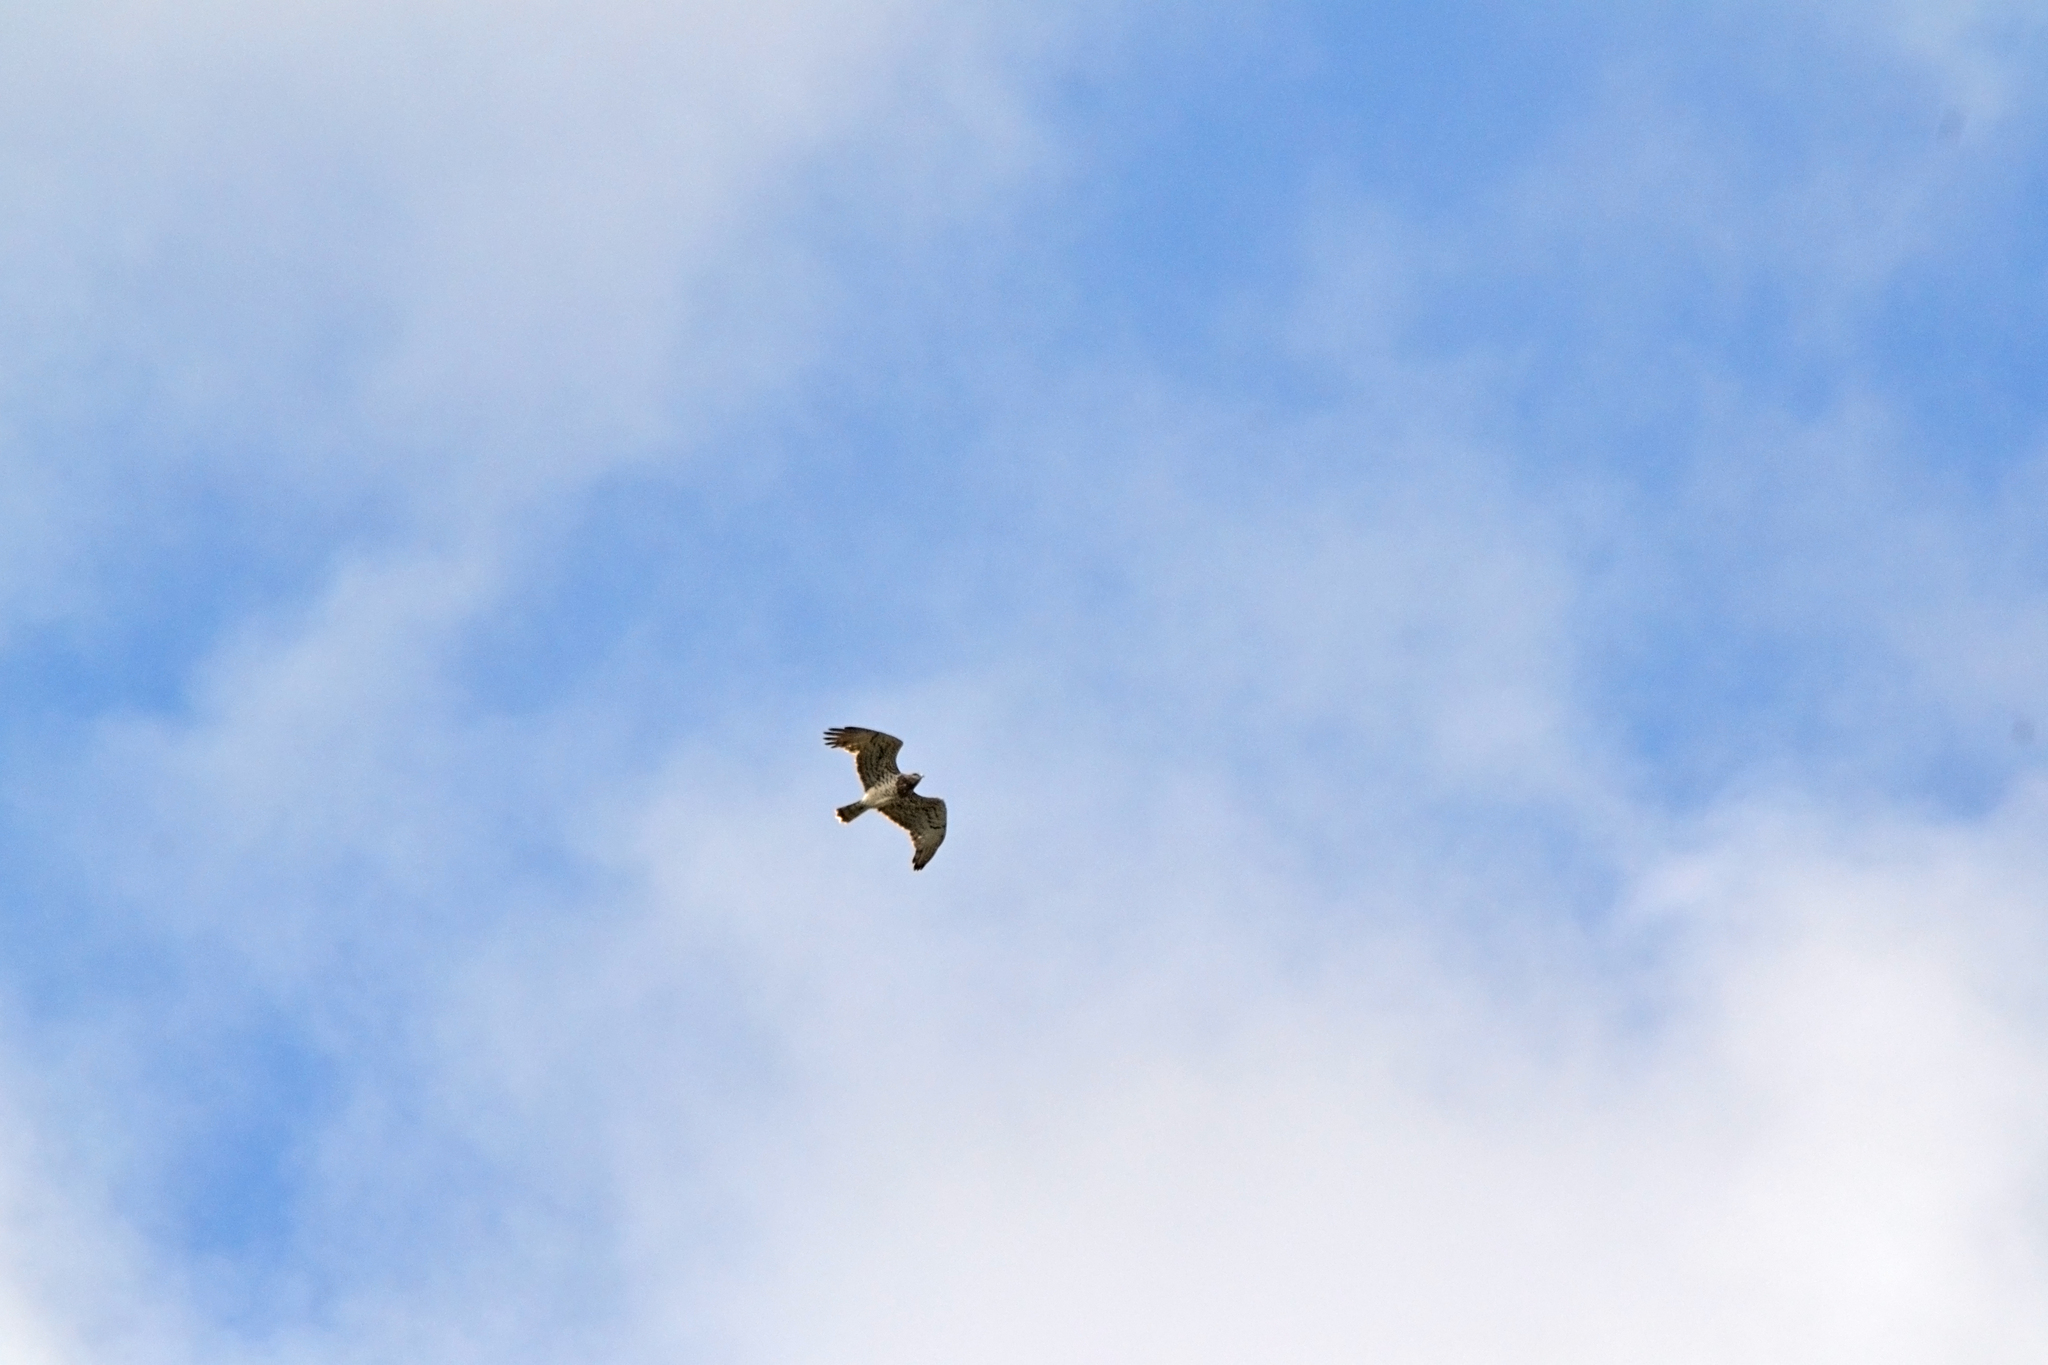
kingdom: Animalia
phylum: Chordata
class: Aves
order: Accipitriformes
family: Accipitridae
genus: Circaetus
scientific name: Circaetus gallicus
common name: Short-toed snake eagle
